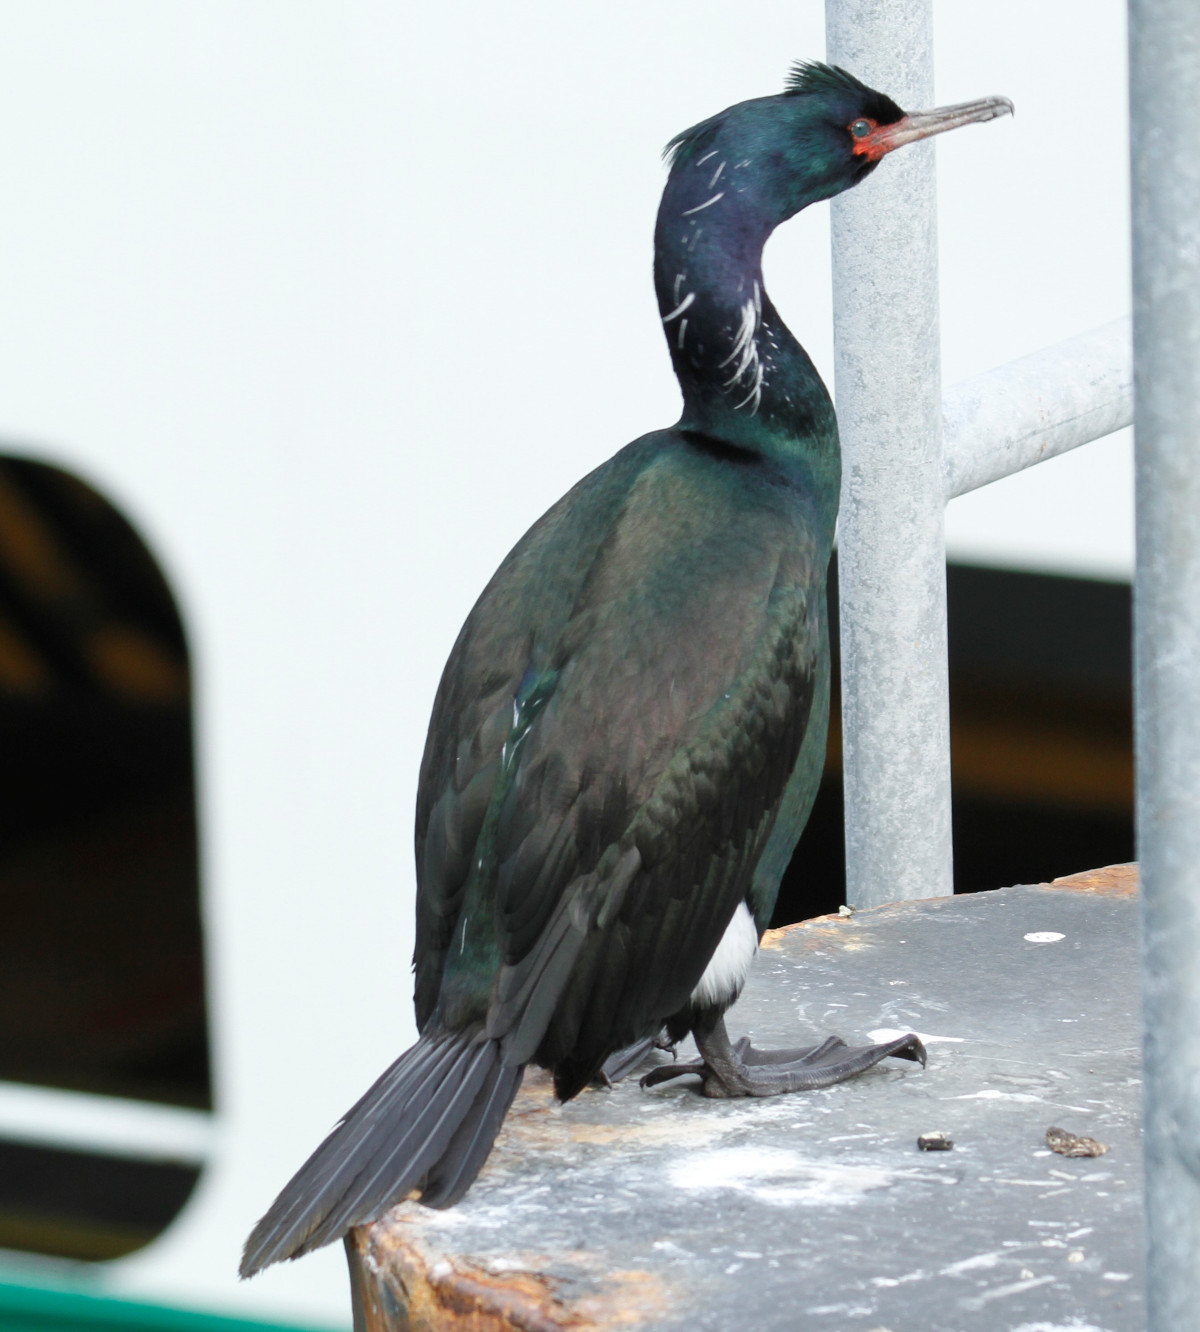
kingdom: Animalia
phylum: Chordata
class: Aves
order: Suliformes
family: Phalacrocoracidae
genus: Phalacrocorax
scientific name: Phalacrocorax pelagicus
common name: Pelagic cormorant
